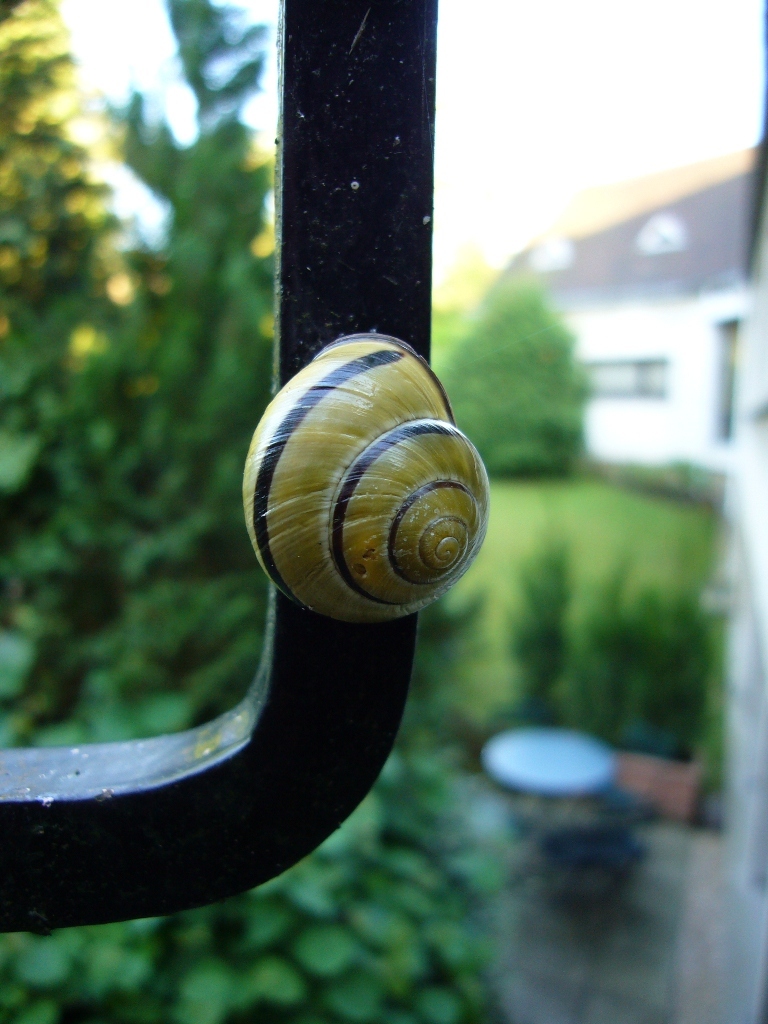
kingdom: Animalia
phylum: Mollusca
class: Gastropoda
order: Stylommatophora
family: Helicidae
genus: Cepaea
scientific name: Cepaea nemoralis
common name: Grovesnail
